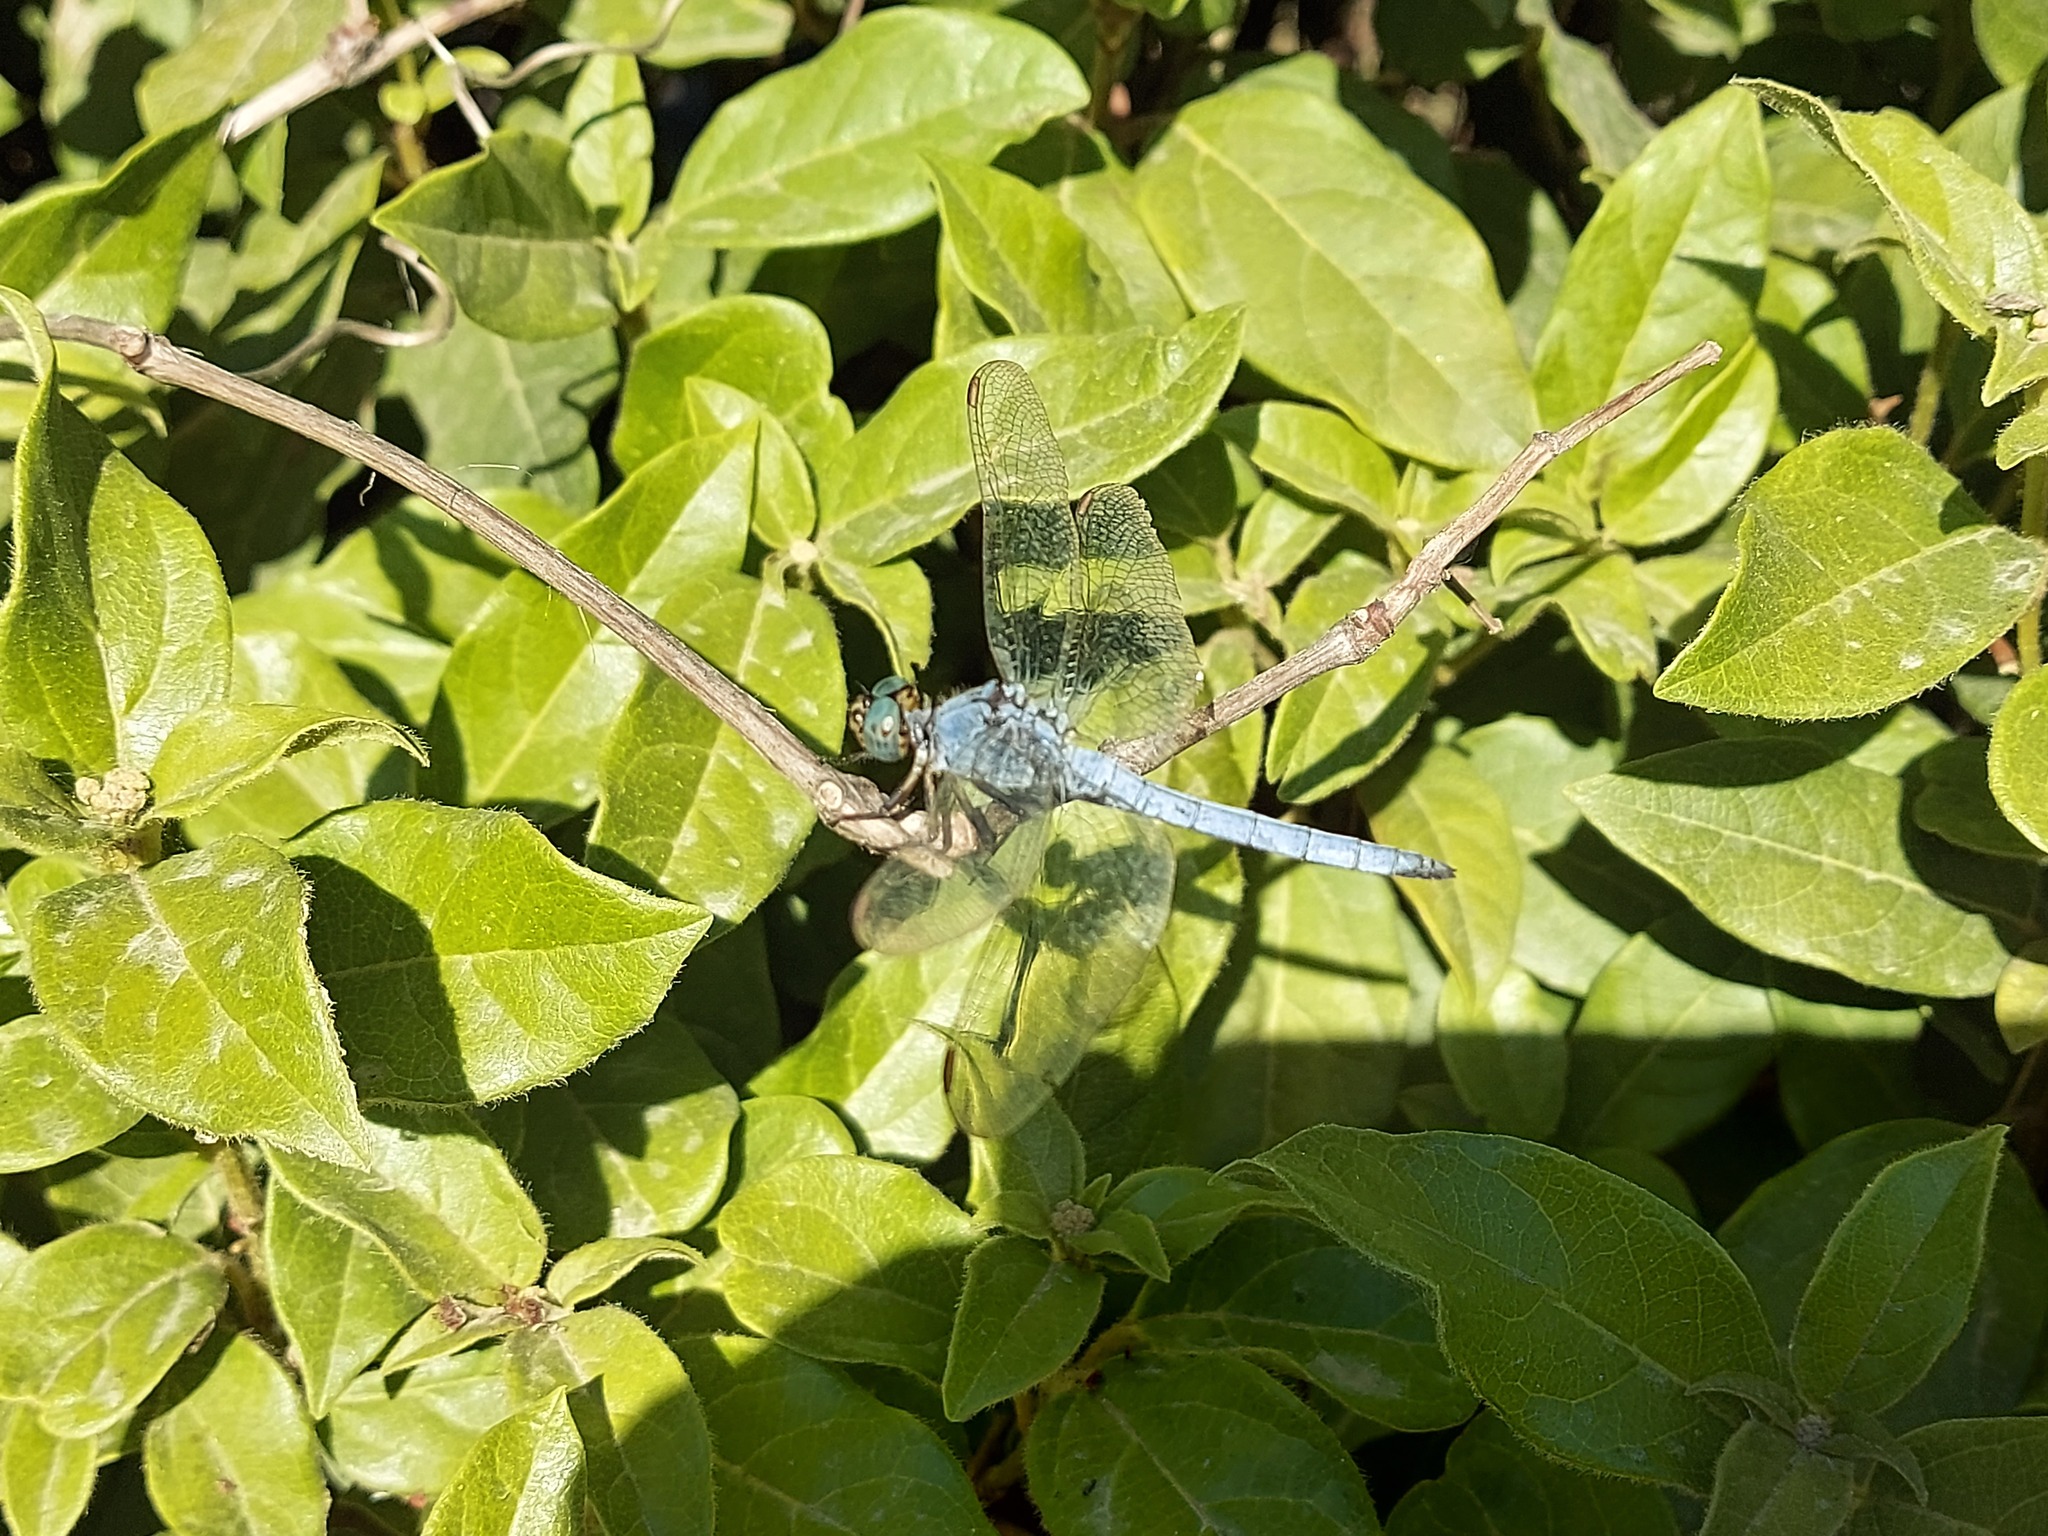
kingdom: Animalia
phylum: Arthropoda
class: Insecta
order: Odonata
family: Libellulidae
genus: Orthetrum
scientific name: Orthetrum coerulescens
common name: Keeled skimmer
